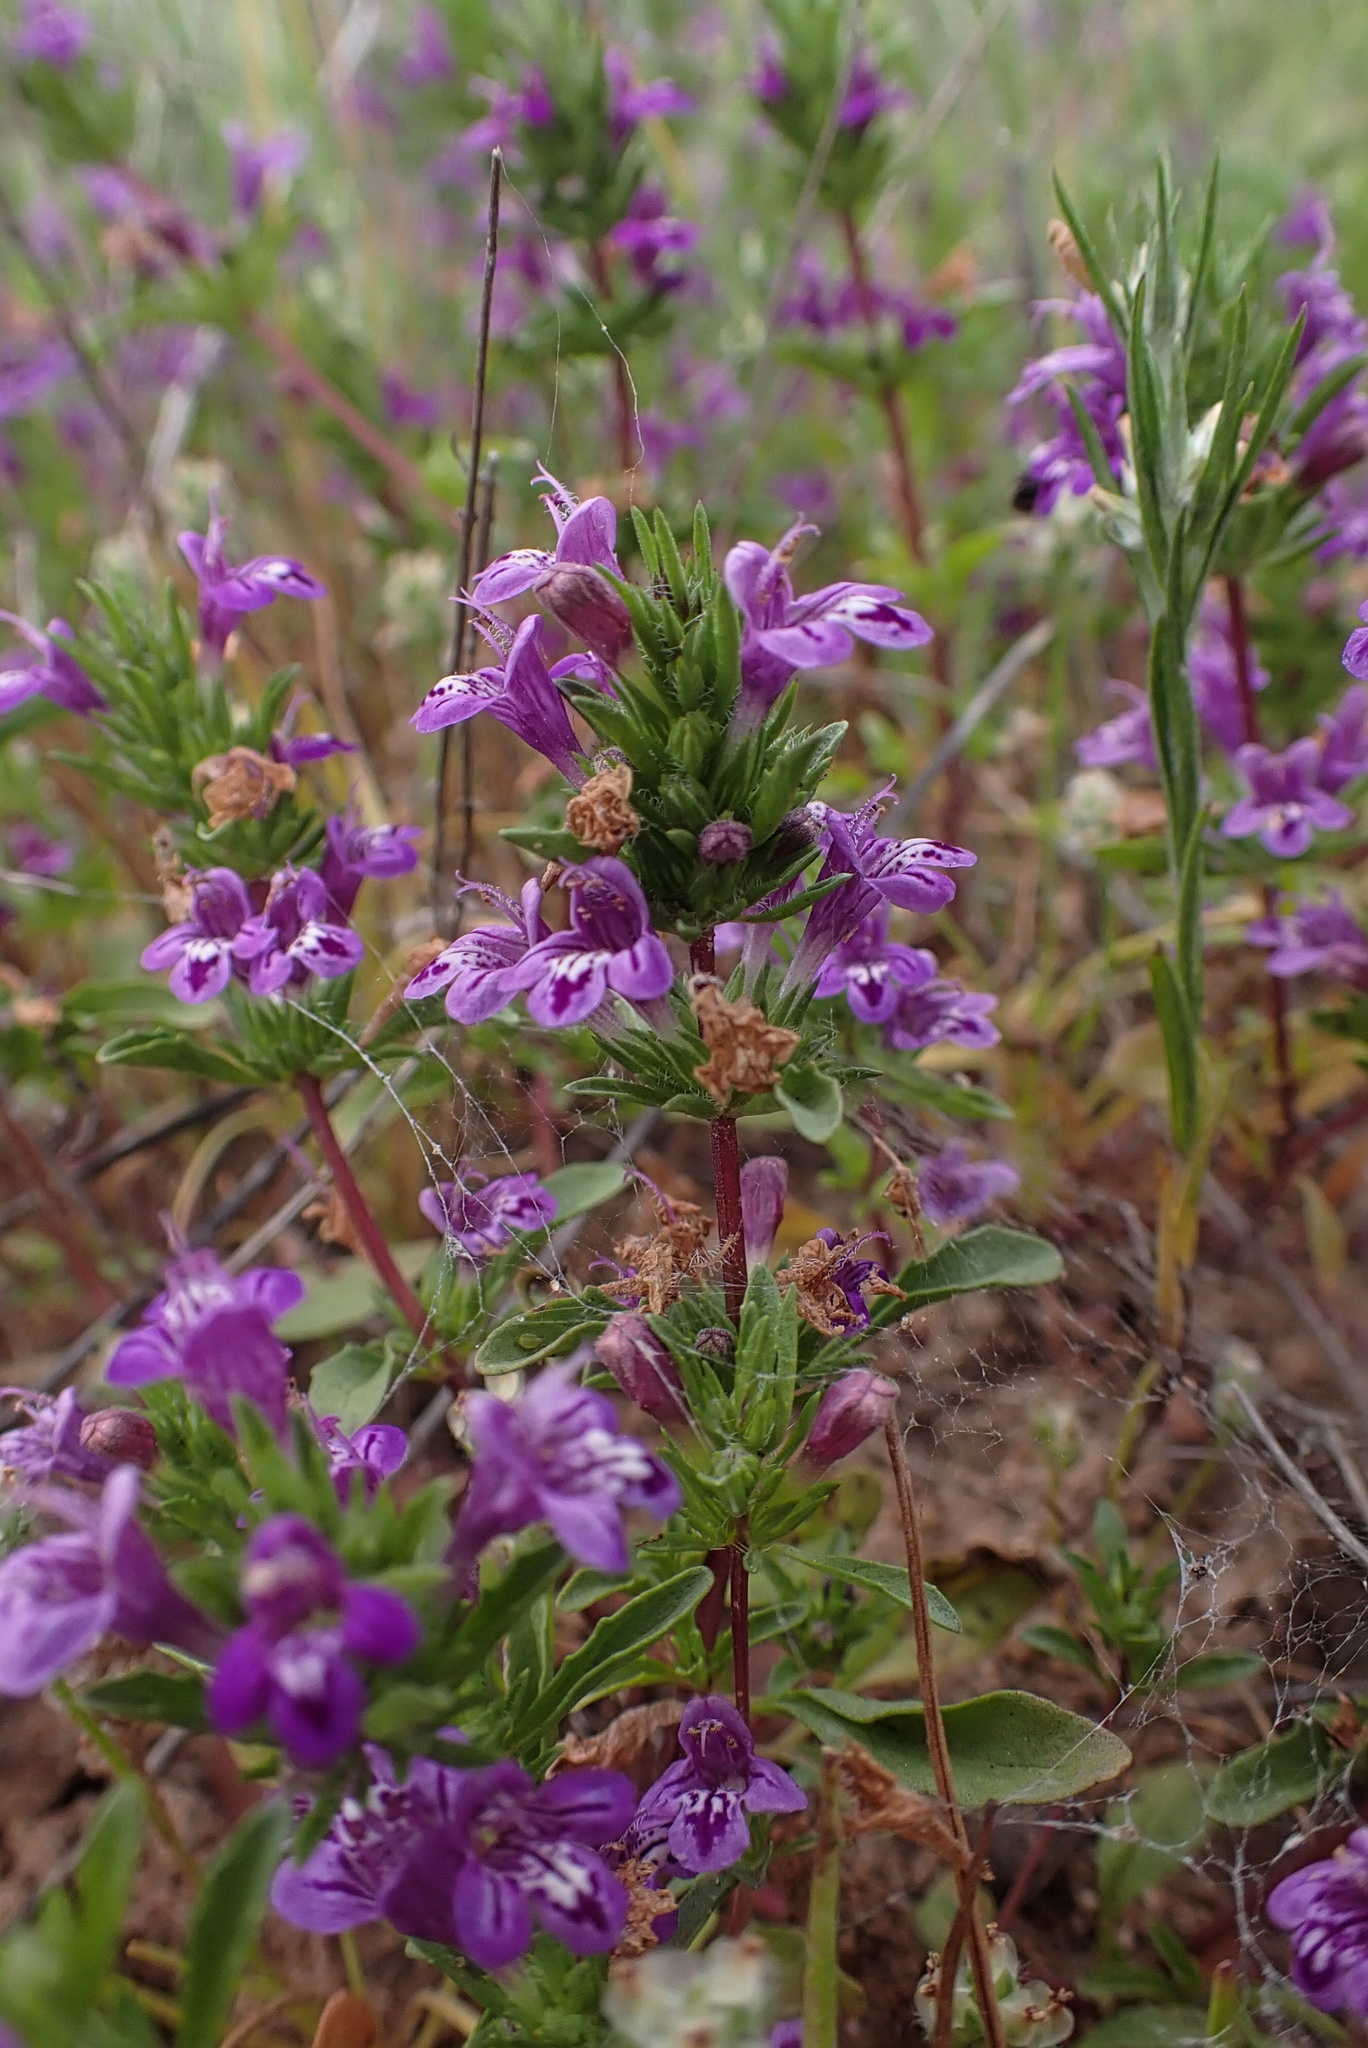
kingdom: Plantae
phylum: Tracheophyta
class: Magnoliopsida
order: Lamiales
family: Lamiaceae
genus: Pogogyne
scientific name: Pogogyne nudiuscula
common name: Otay mesa-mint
